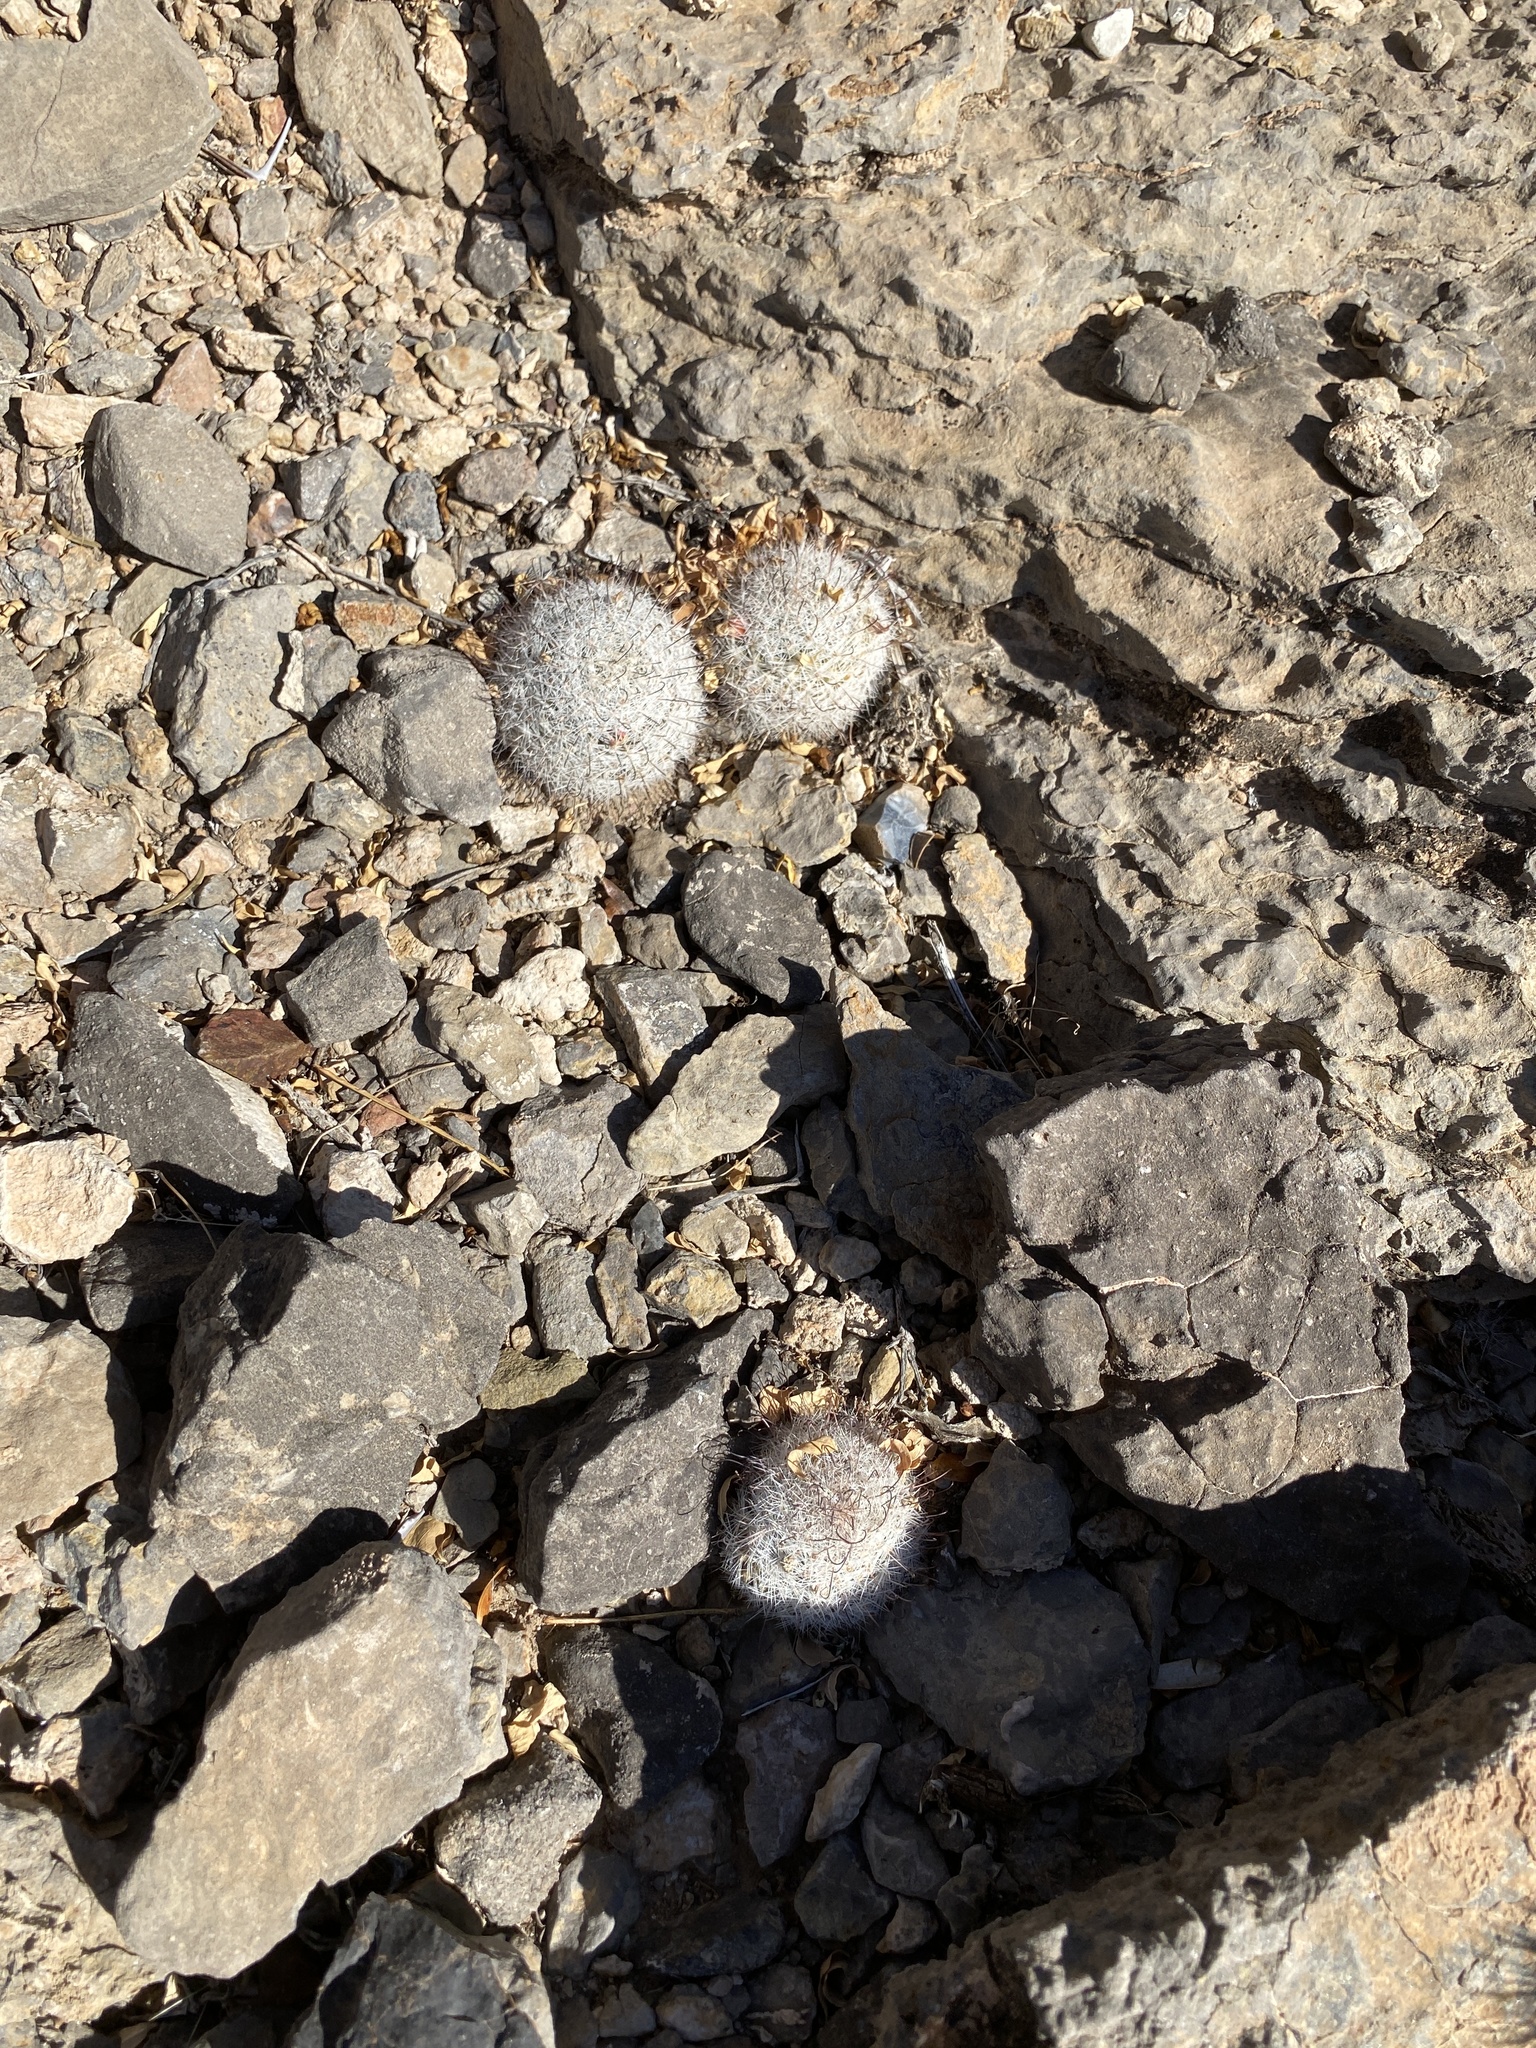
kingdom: Plantae
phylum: Tracheophyta
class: Magnoliopsida
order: Caryophyllales
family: Cactaceae
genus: Cochemiea
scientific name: Cochemiea grahamii
